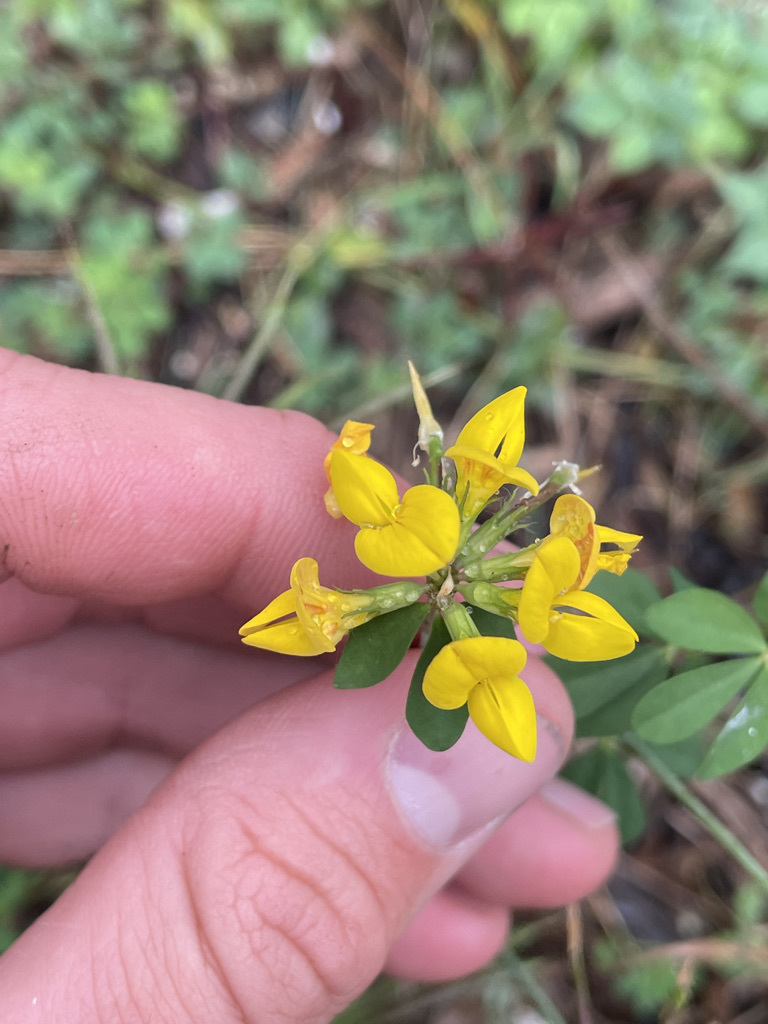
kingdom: Plantae
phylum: Tracheophyta
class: Magnoliopsida
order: Fabales
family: Fabaceae
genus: Lotus
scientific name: Lotus corniculatus
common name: Common bird's-foot-trefoil
